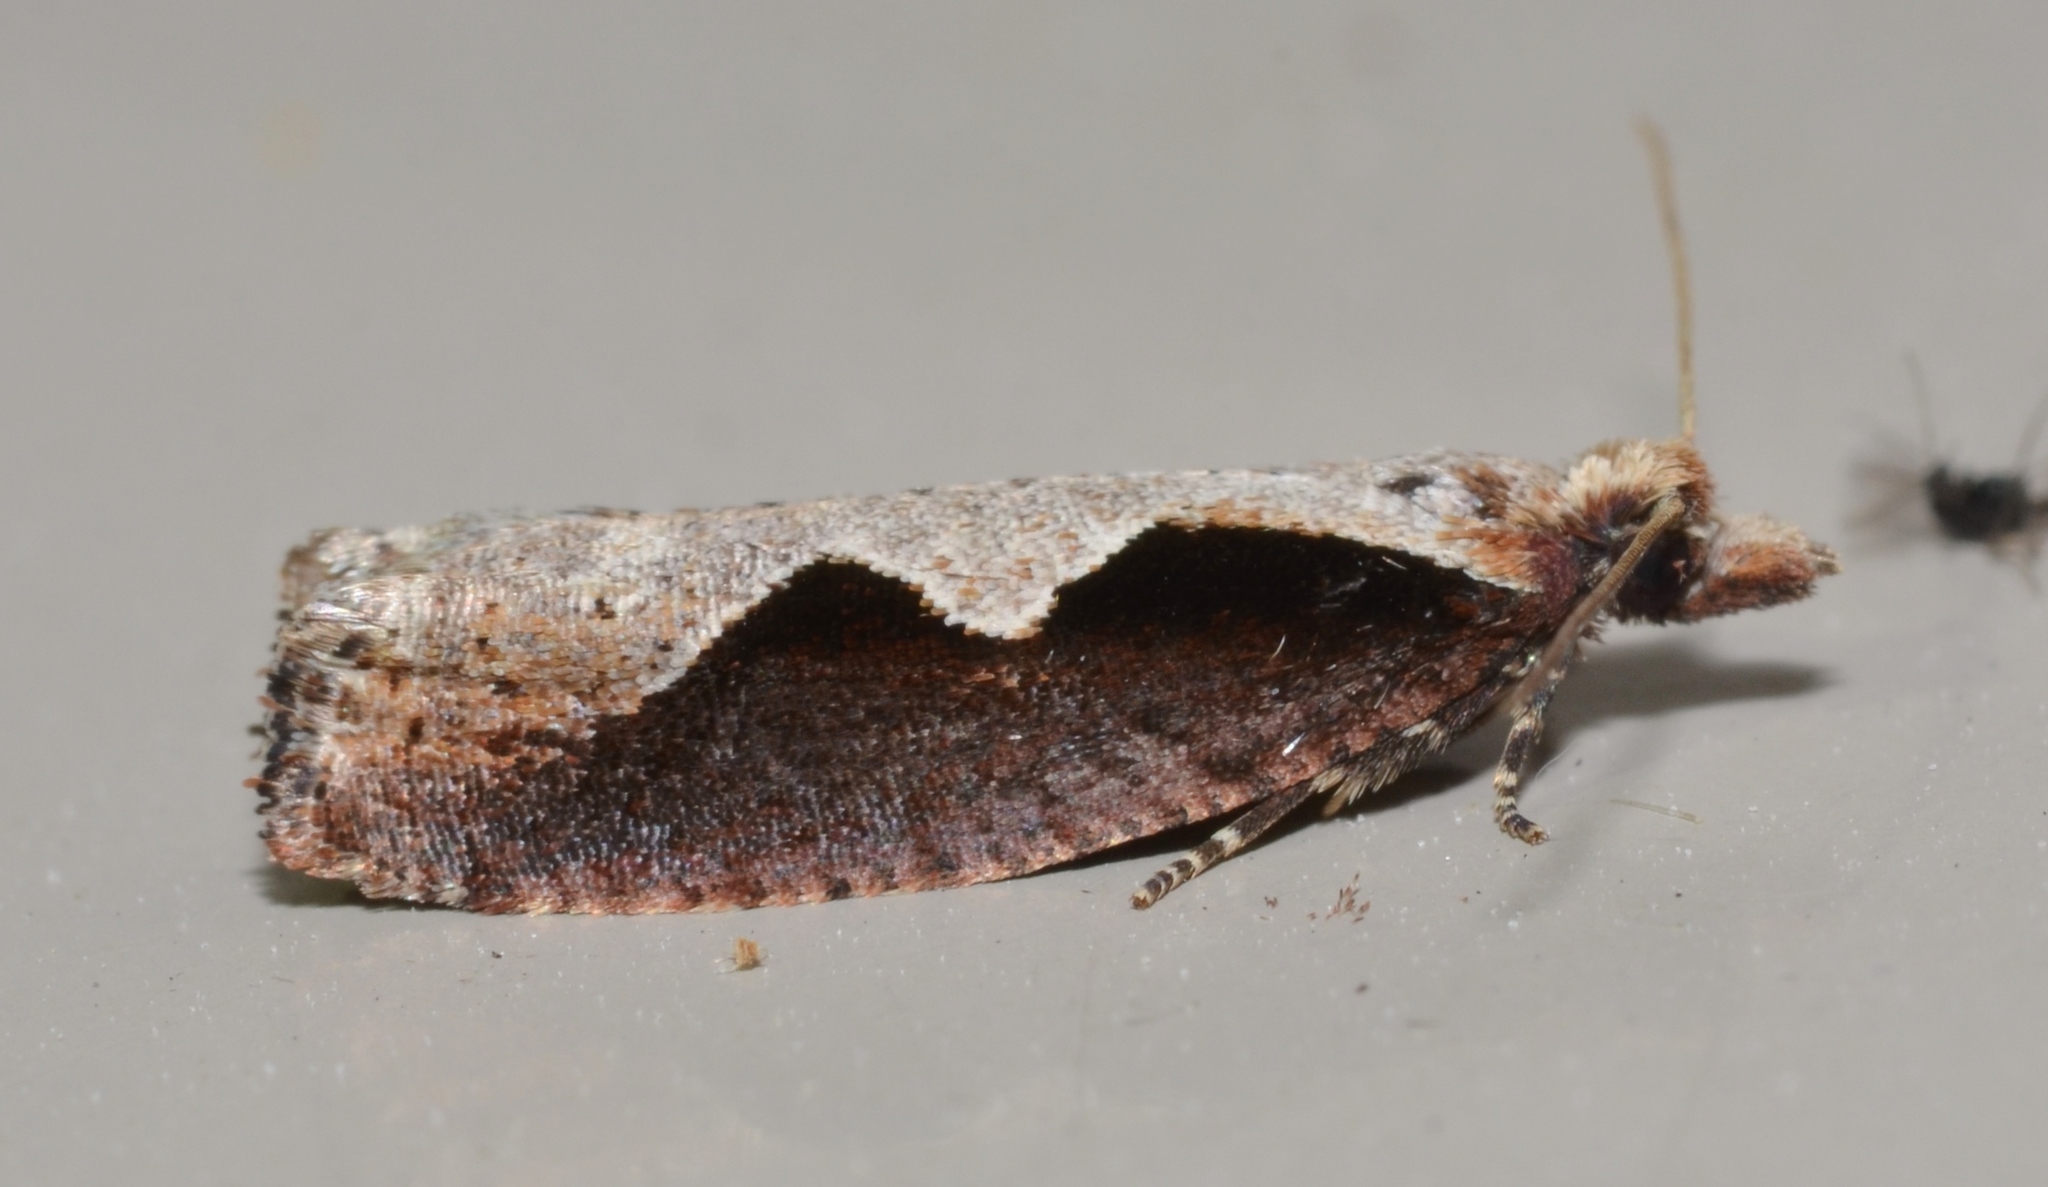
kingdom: Animalia
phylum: Arthropoda
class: Insecta
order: Lepidoptera
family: Tortricidae
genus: Epinotia
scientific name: Epinotia lindana
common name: Diamondback epinotia moth
